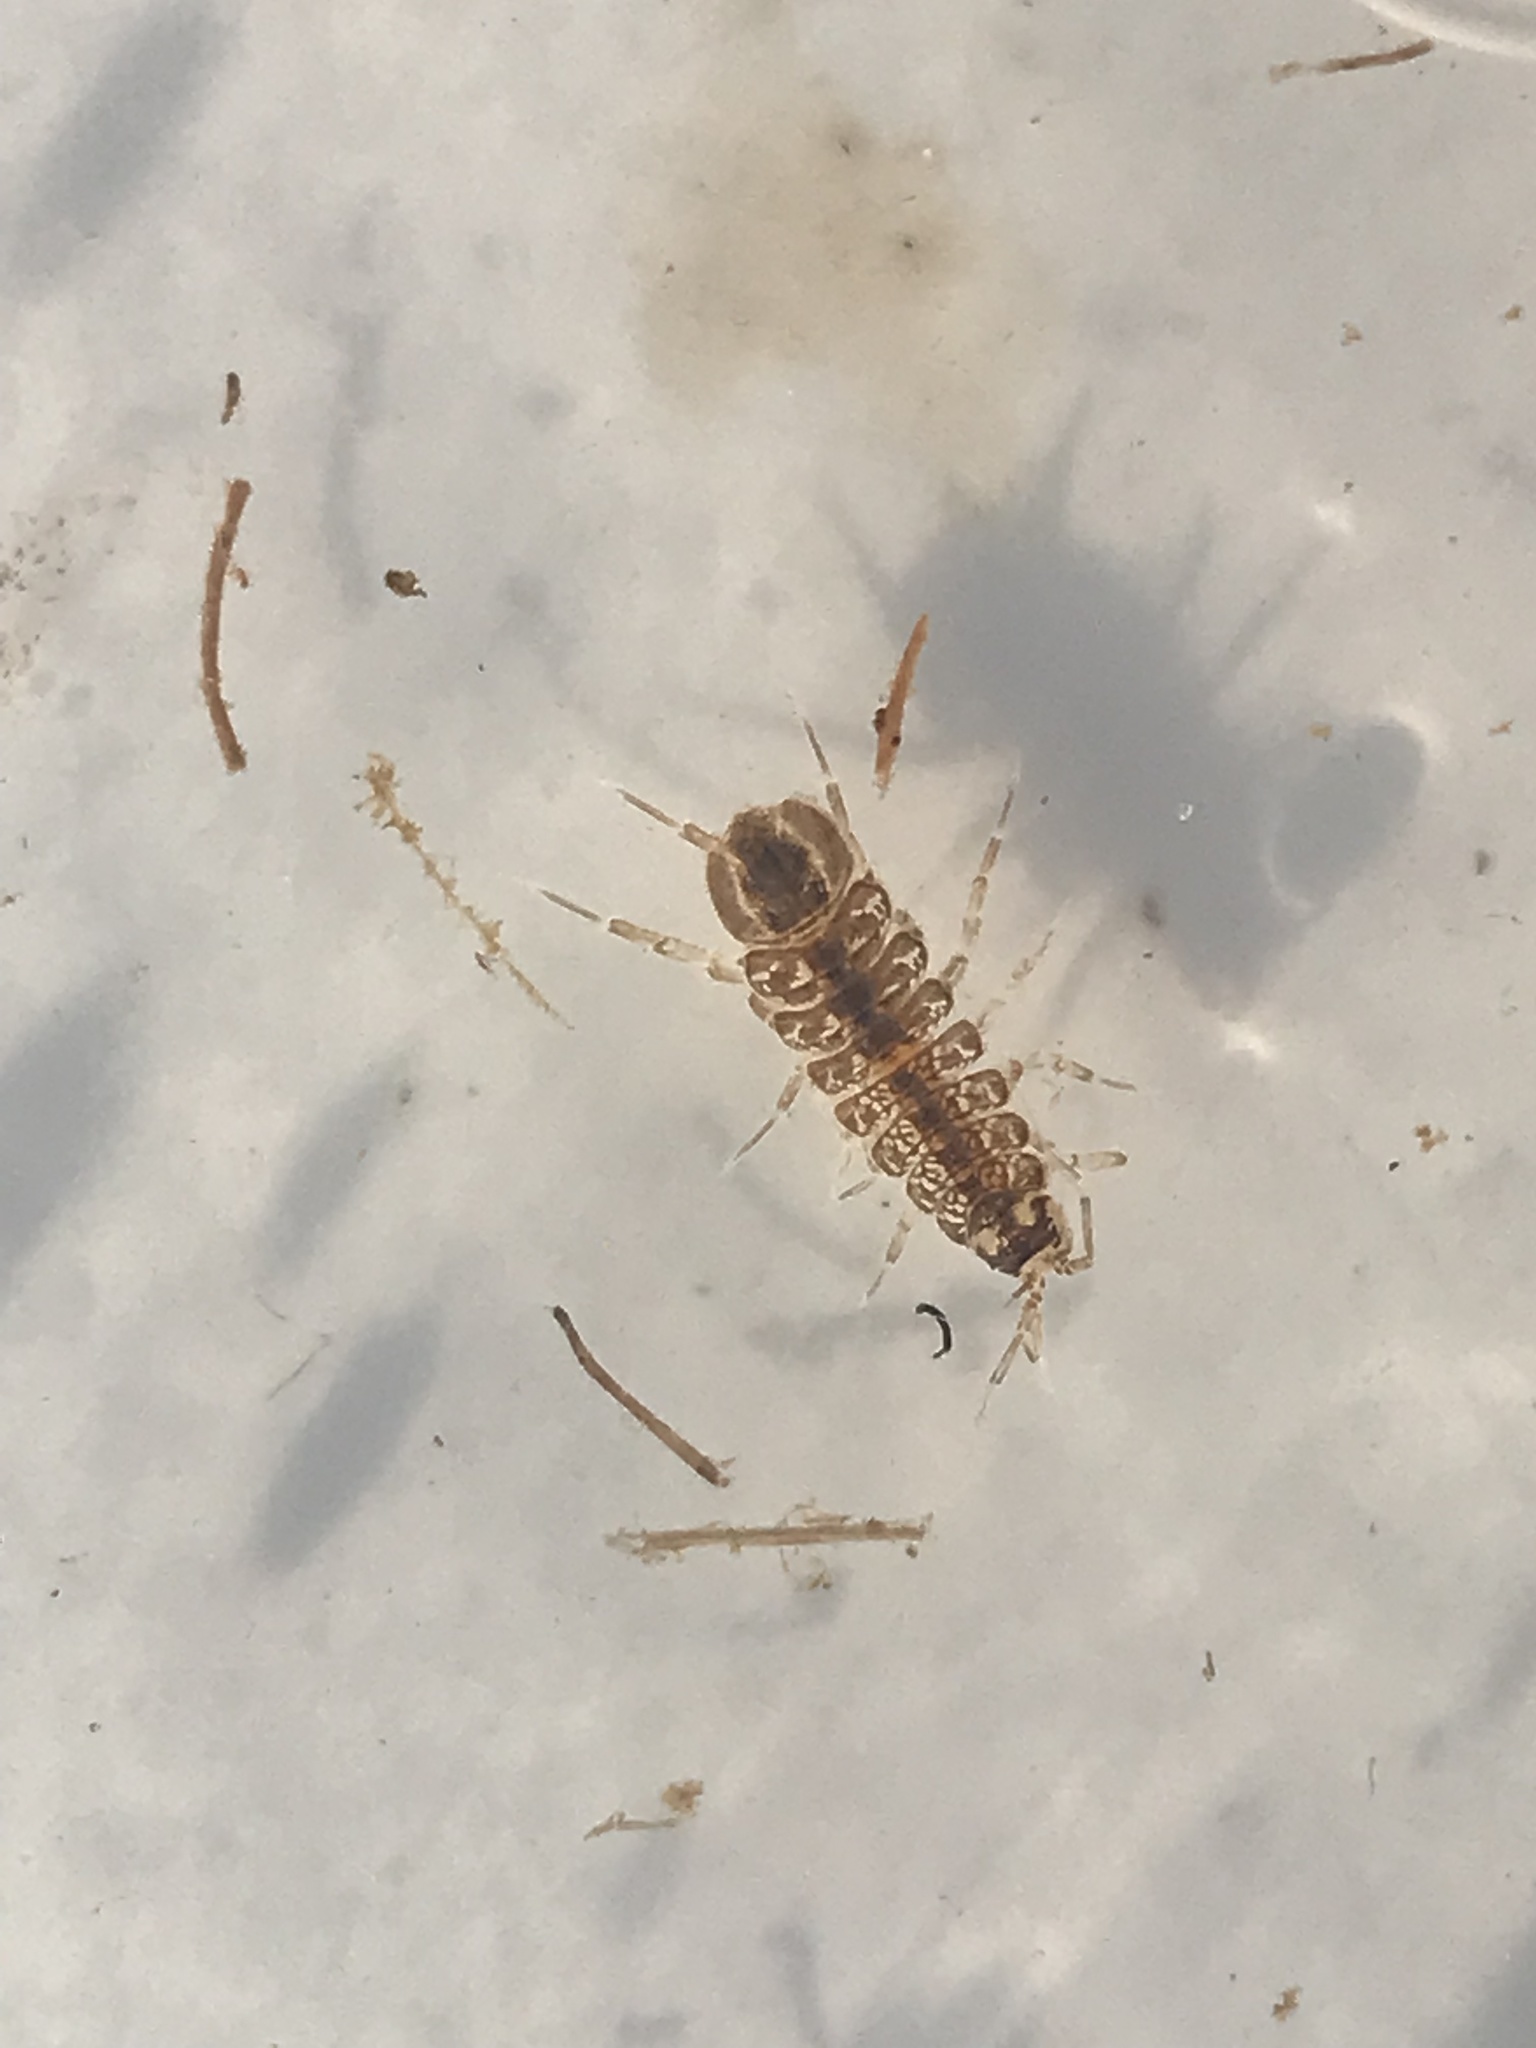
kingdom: Animalia
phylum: Arthropoda
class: Malacostraca
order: Isopoda
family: Asellidae
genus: Asellus
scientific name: Asellus aquaticus
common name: Water hog lice/slaters
